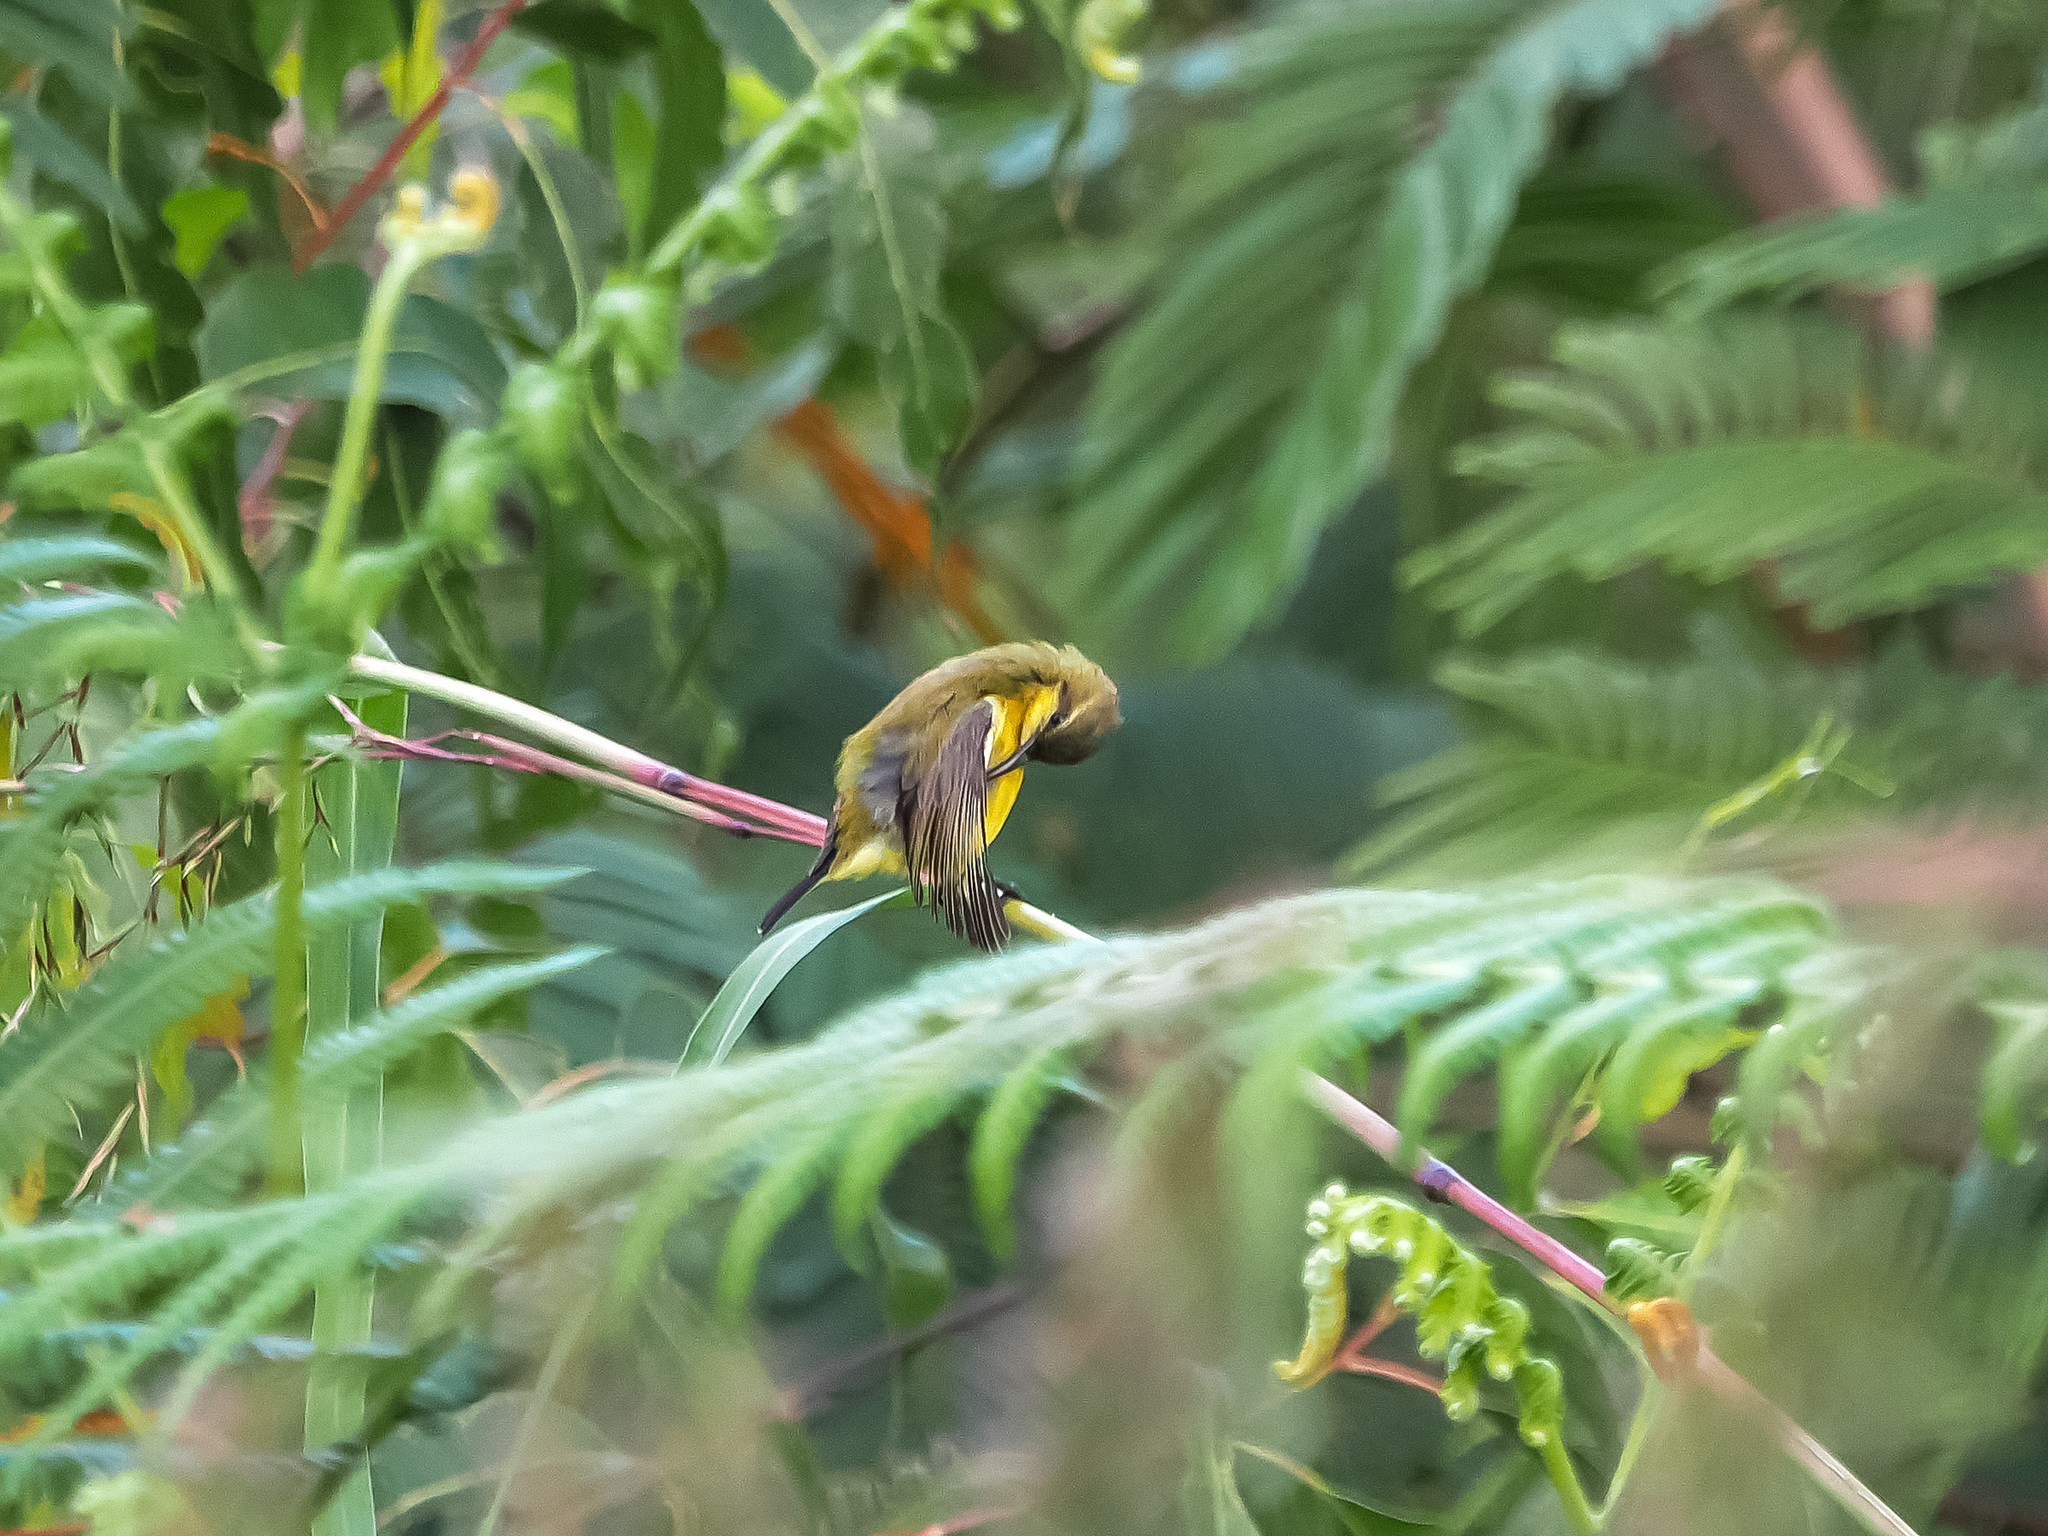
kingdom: Animalia
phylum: Chordata
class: Aves
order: Passeriformes
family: Nectariniidae
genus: Cinnyris
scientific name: Cinnyris
